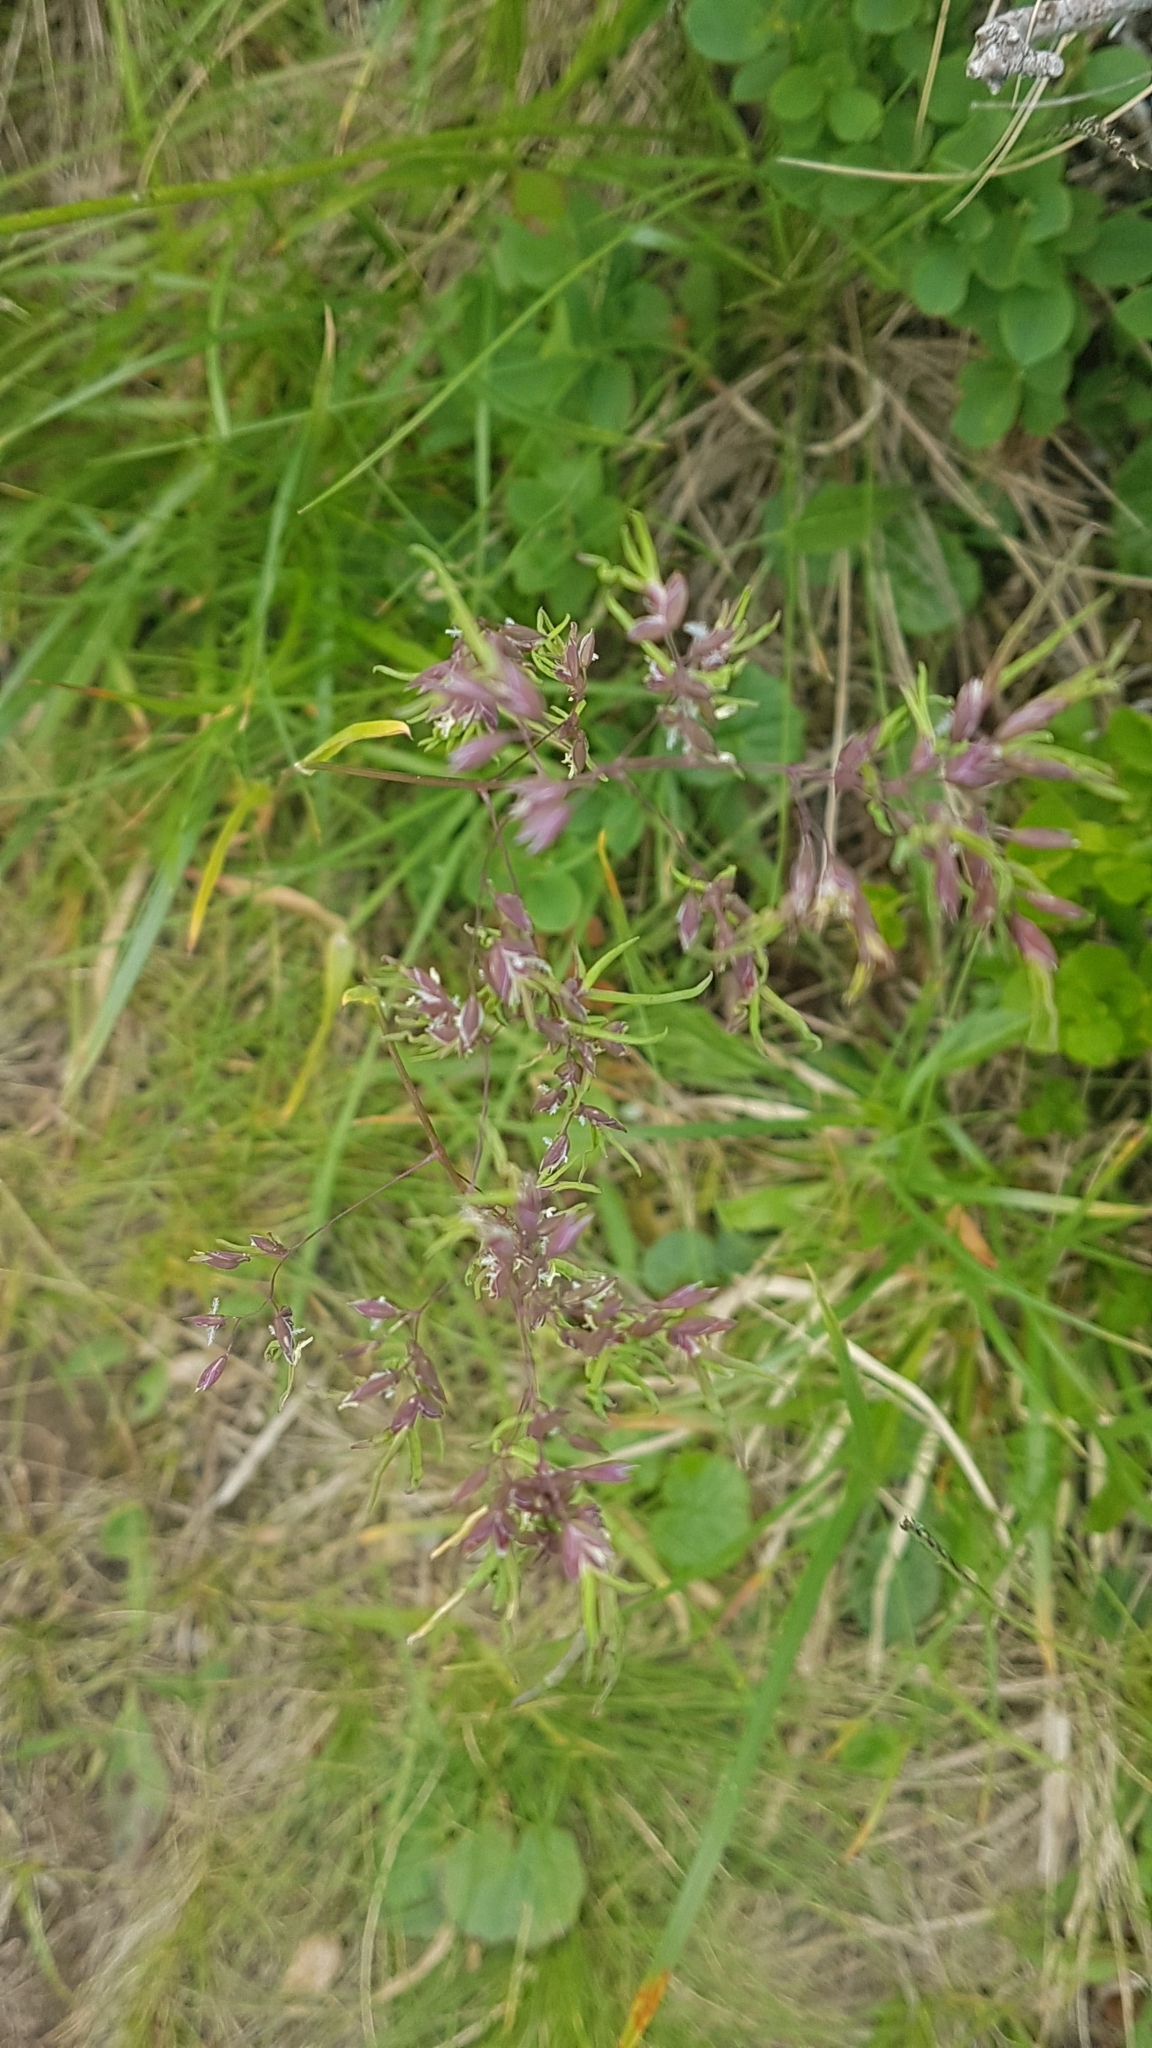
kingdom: Plantae
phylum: Tracheophyta
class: Liliopsida
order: Poales
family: Poaceae
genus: Poa
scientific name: Poa bulbosa
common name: Bulbous bluegrass
